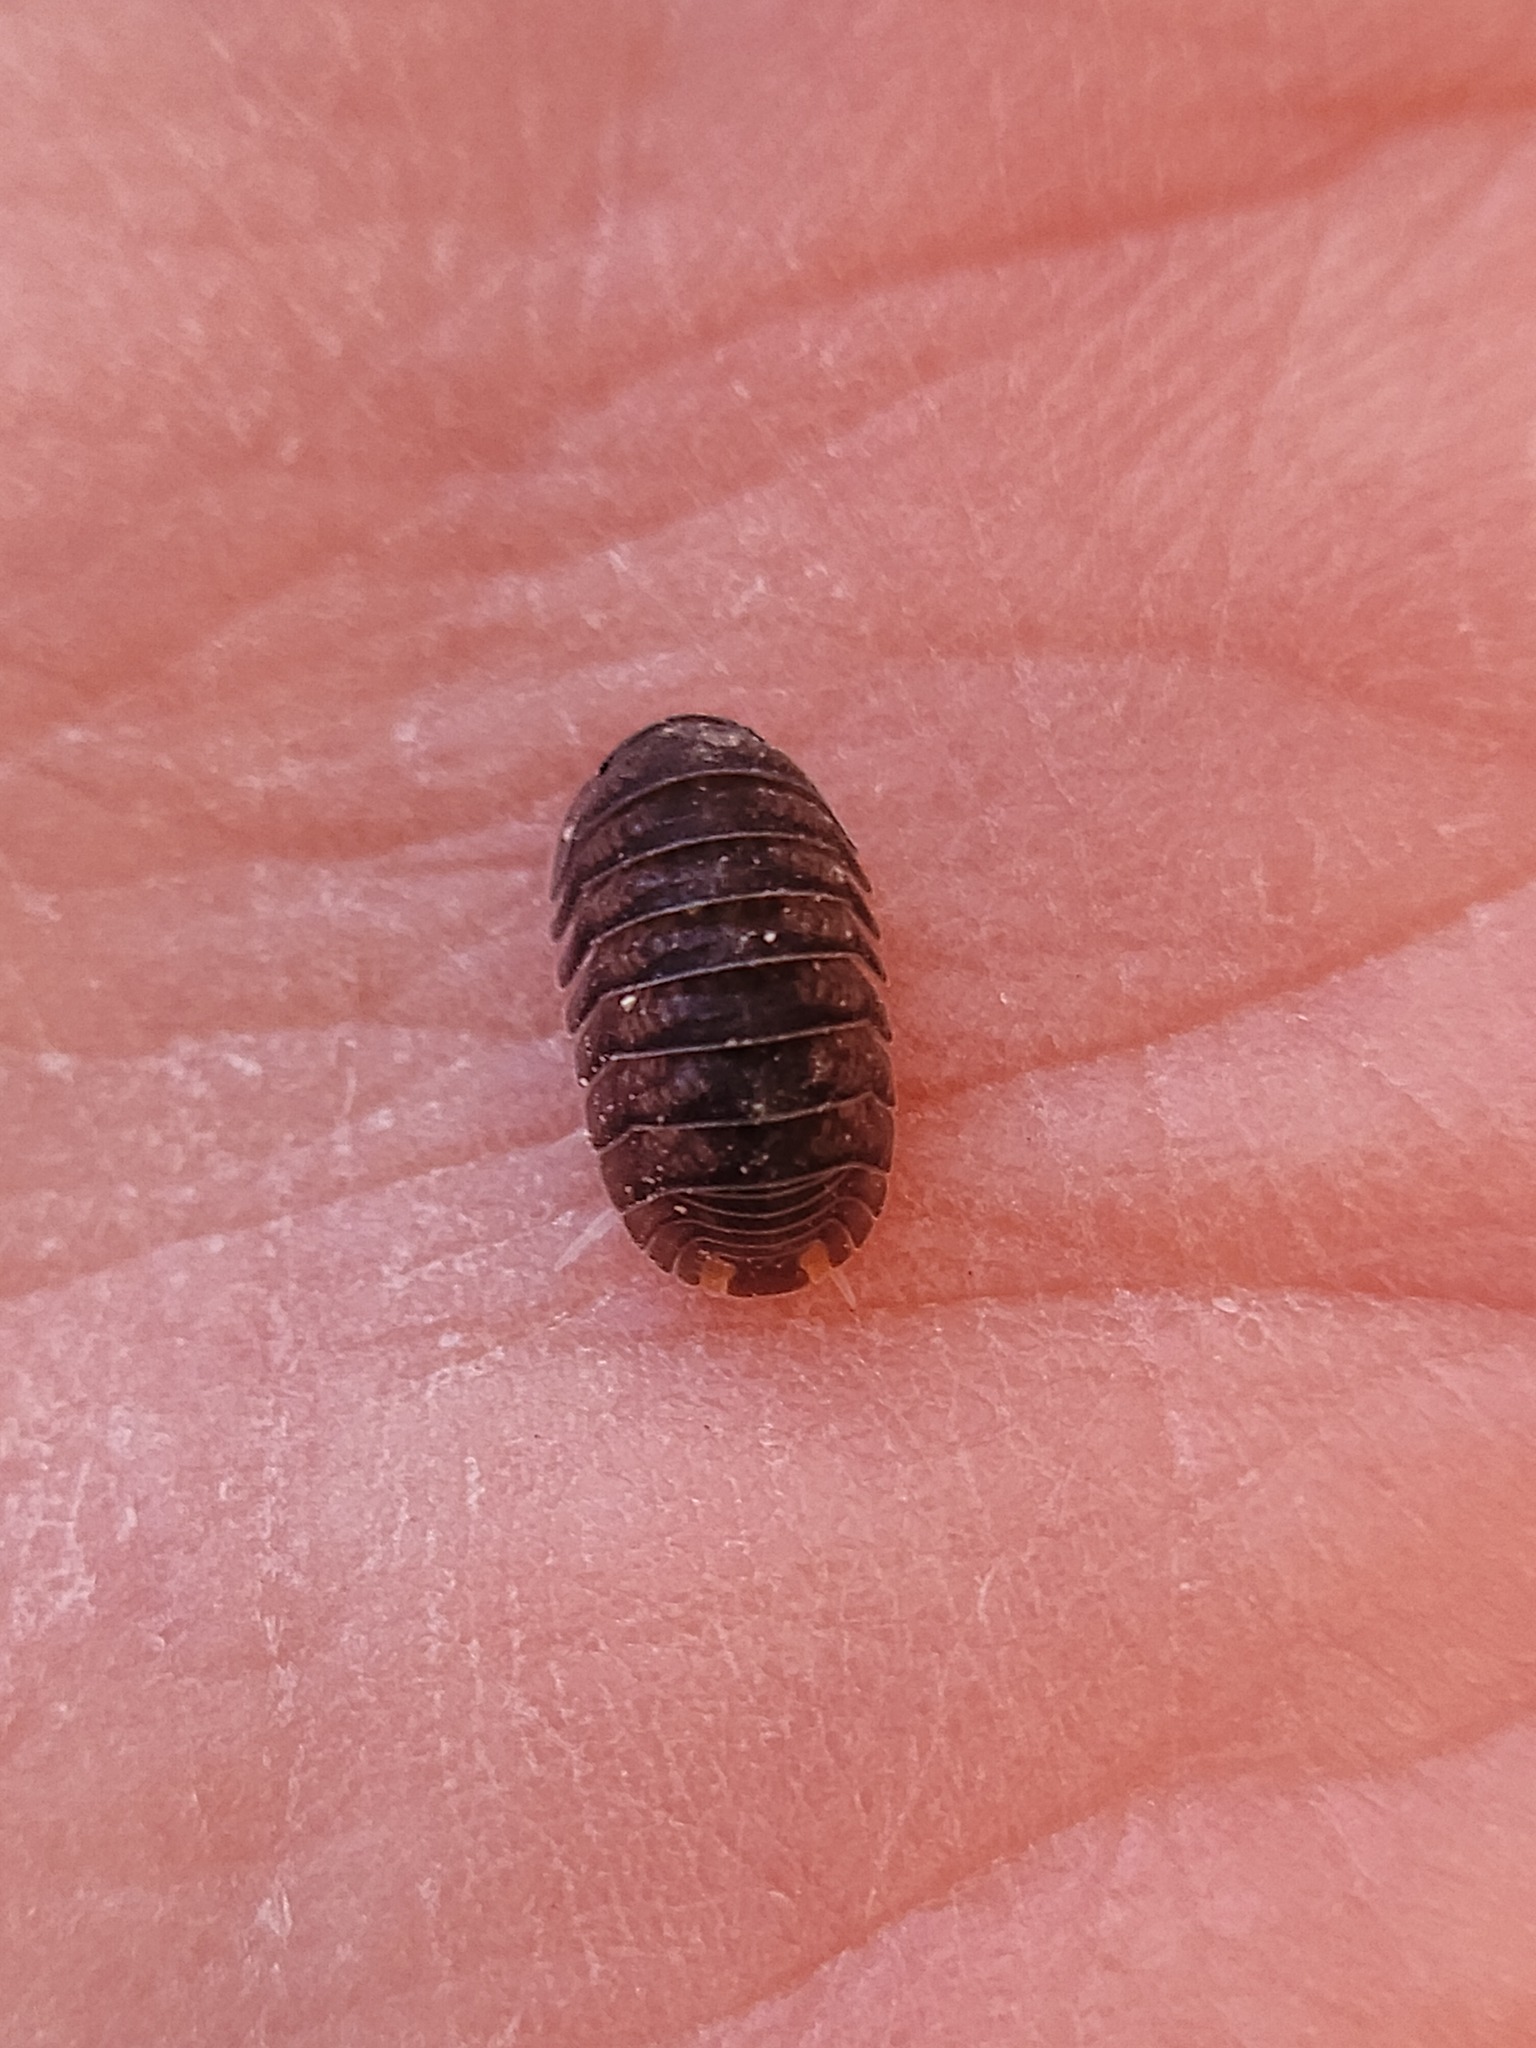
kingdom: Animalia
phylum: Arthropoda
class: Malacostraca
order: Isopoda
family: Armadillidae
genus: Cubaris
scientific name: Cubaris murina
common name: Pillbug
